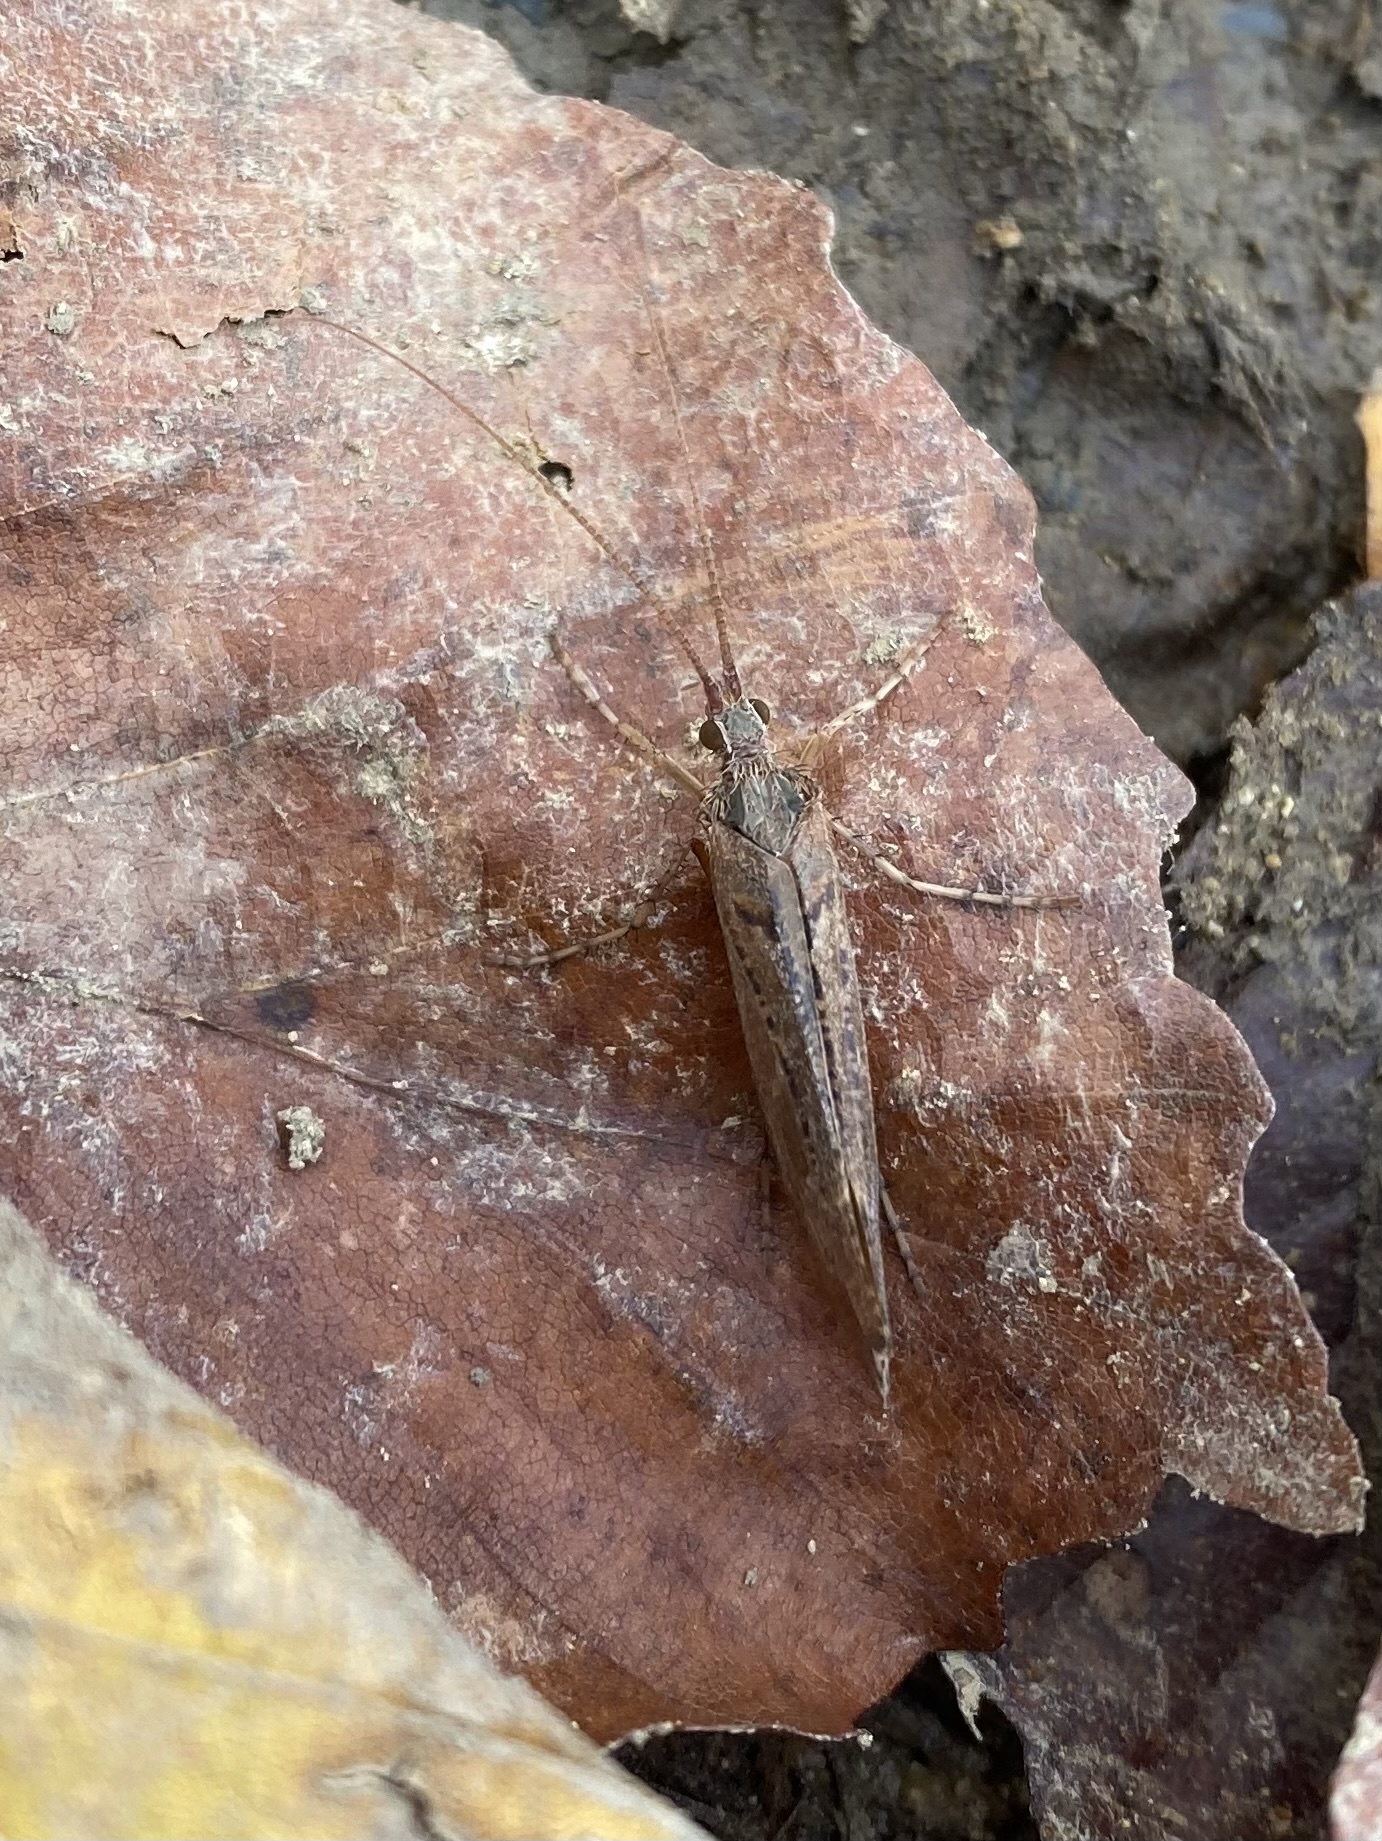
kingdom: Animalia
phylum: Arthropoda
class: Insecta
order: Trichoptera
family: Limnephilidae
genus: Glyphotaelius
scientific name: Glyphotaelius selysii
